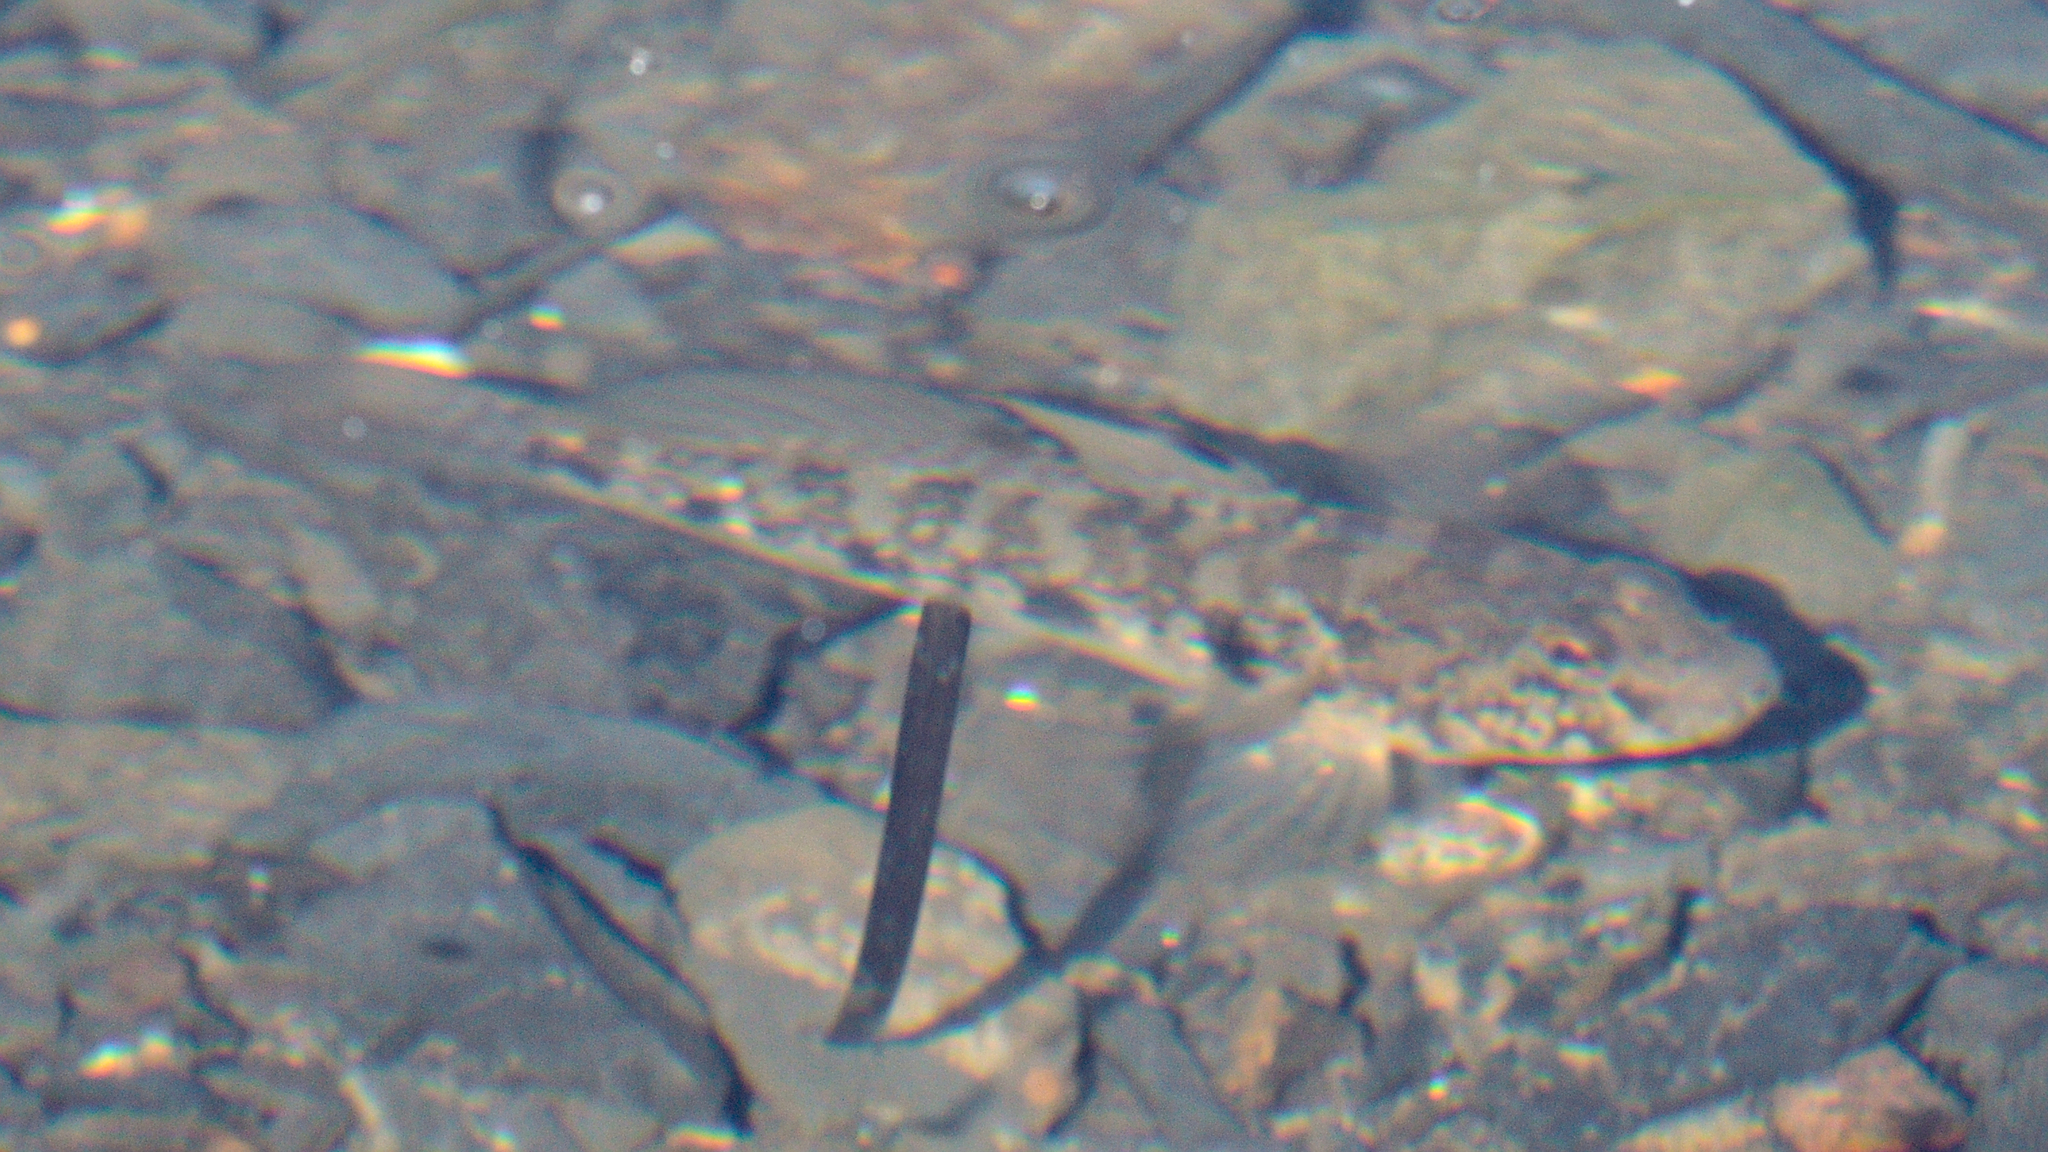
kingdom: Animalia
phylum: Chordata
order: Perciformes
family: Gobiidae
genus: Gobius
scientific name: Gobius niger
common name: Black goby
